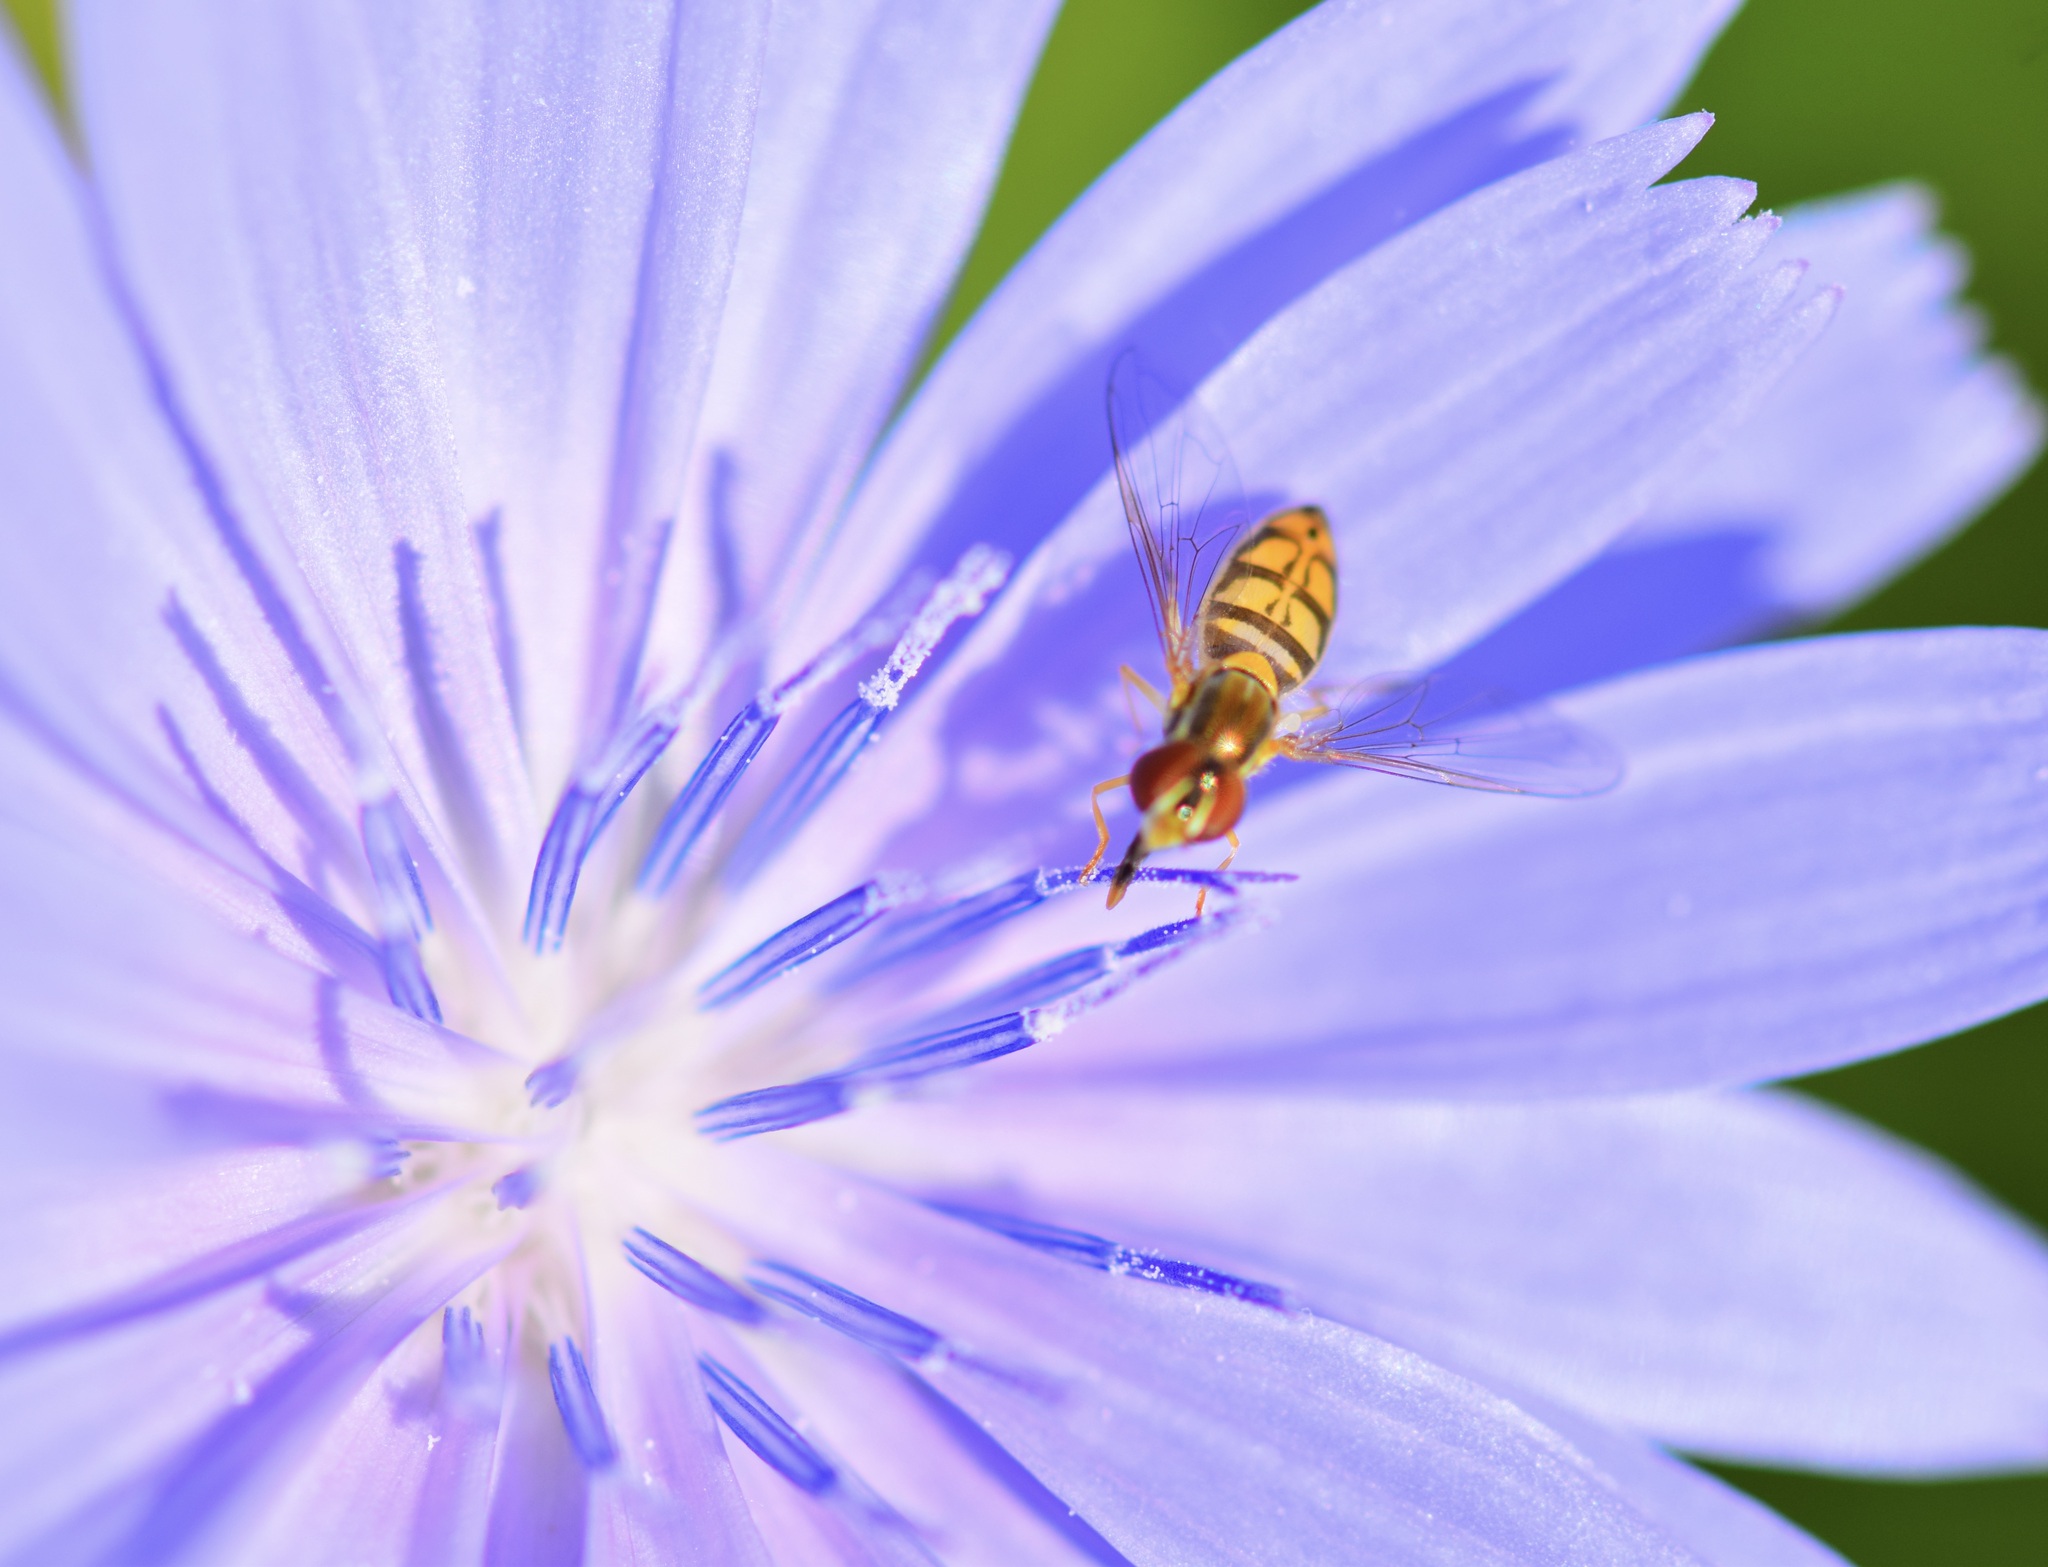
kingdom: Animalia
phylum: Arthropoda
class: Insecta
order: Diptera
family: Syrphidae
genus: Toxomerus
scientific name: Toxomerus marginatus
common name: Syrphid fly
